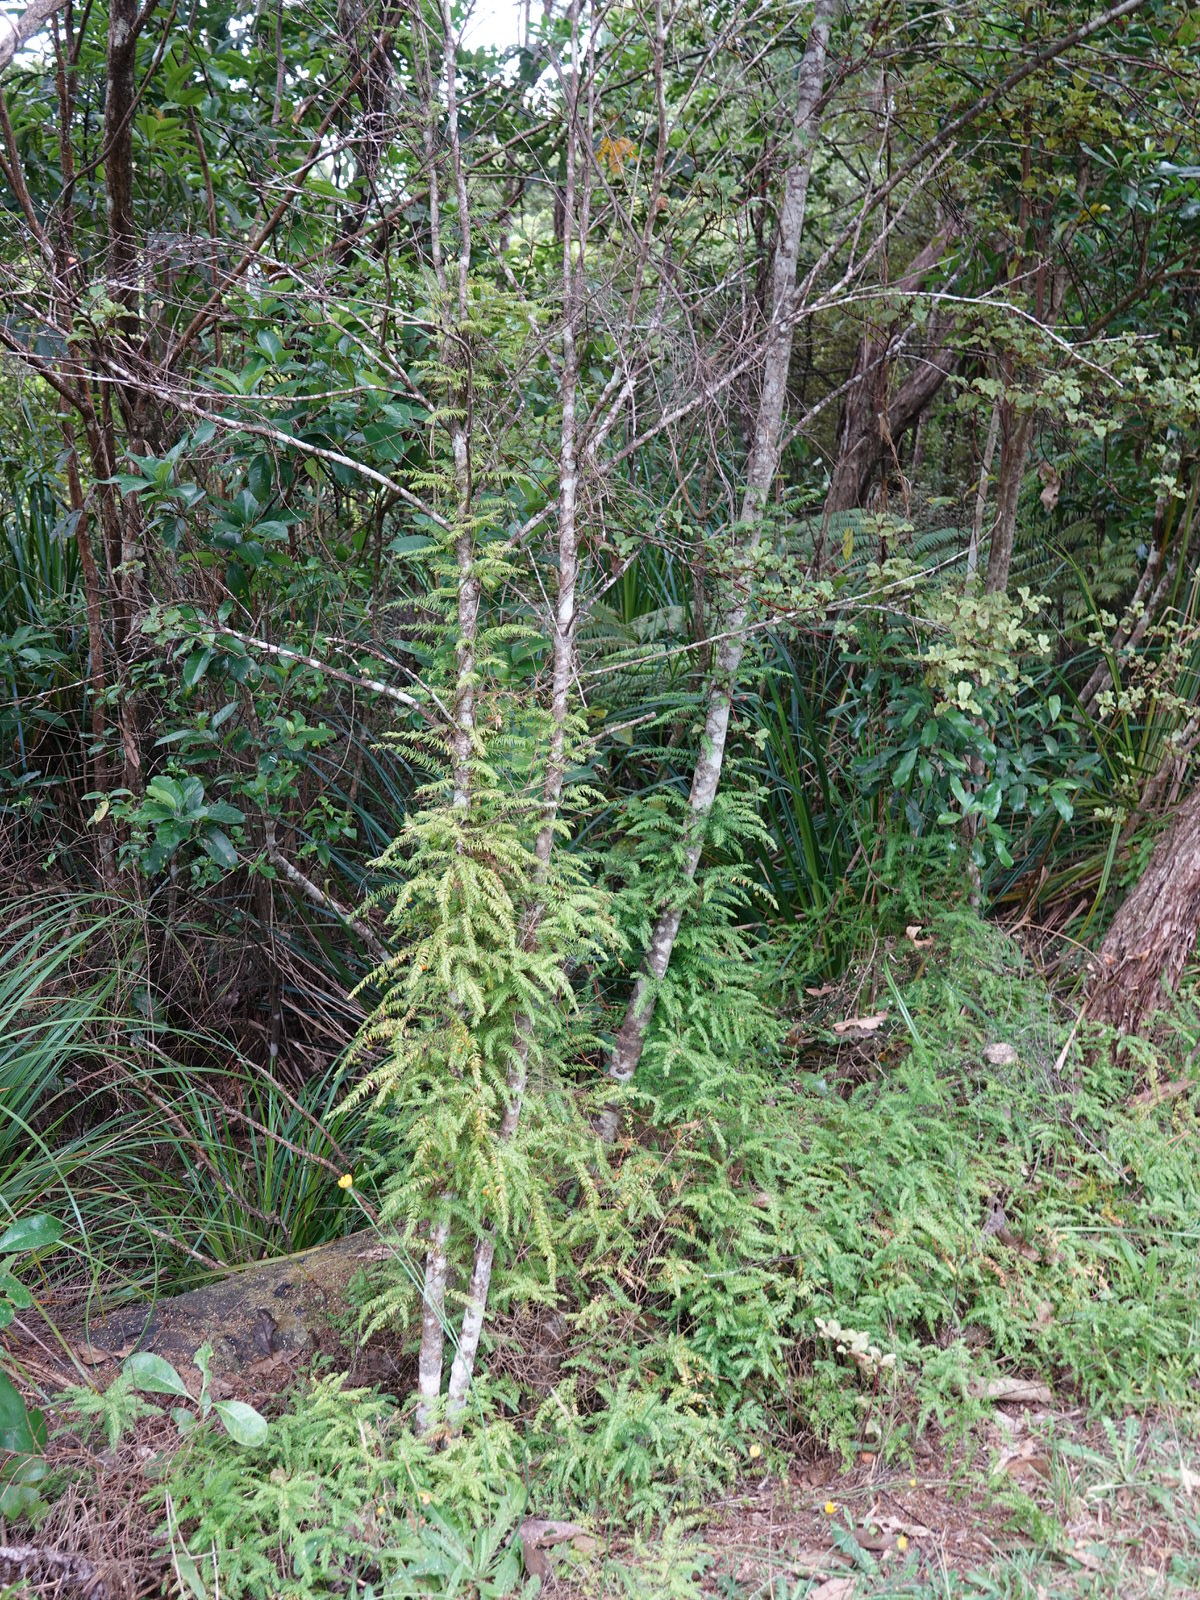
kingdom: Plantae
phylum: Tracheophyta
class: Liliopsida
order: Asparagales
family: Asparagaceae
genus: Asparagus
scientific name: Asparagus scandens
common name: Asparagus-fern
